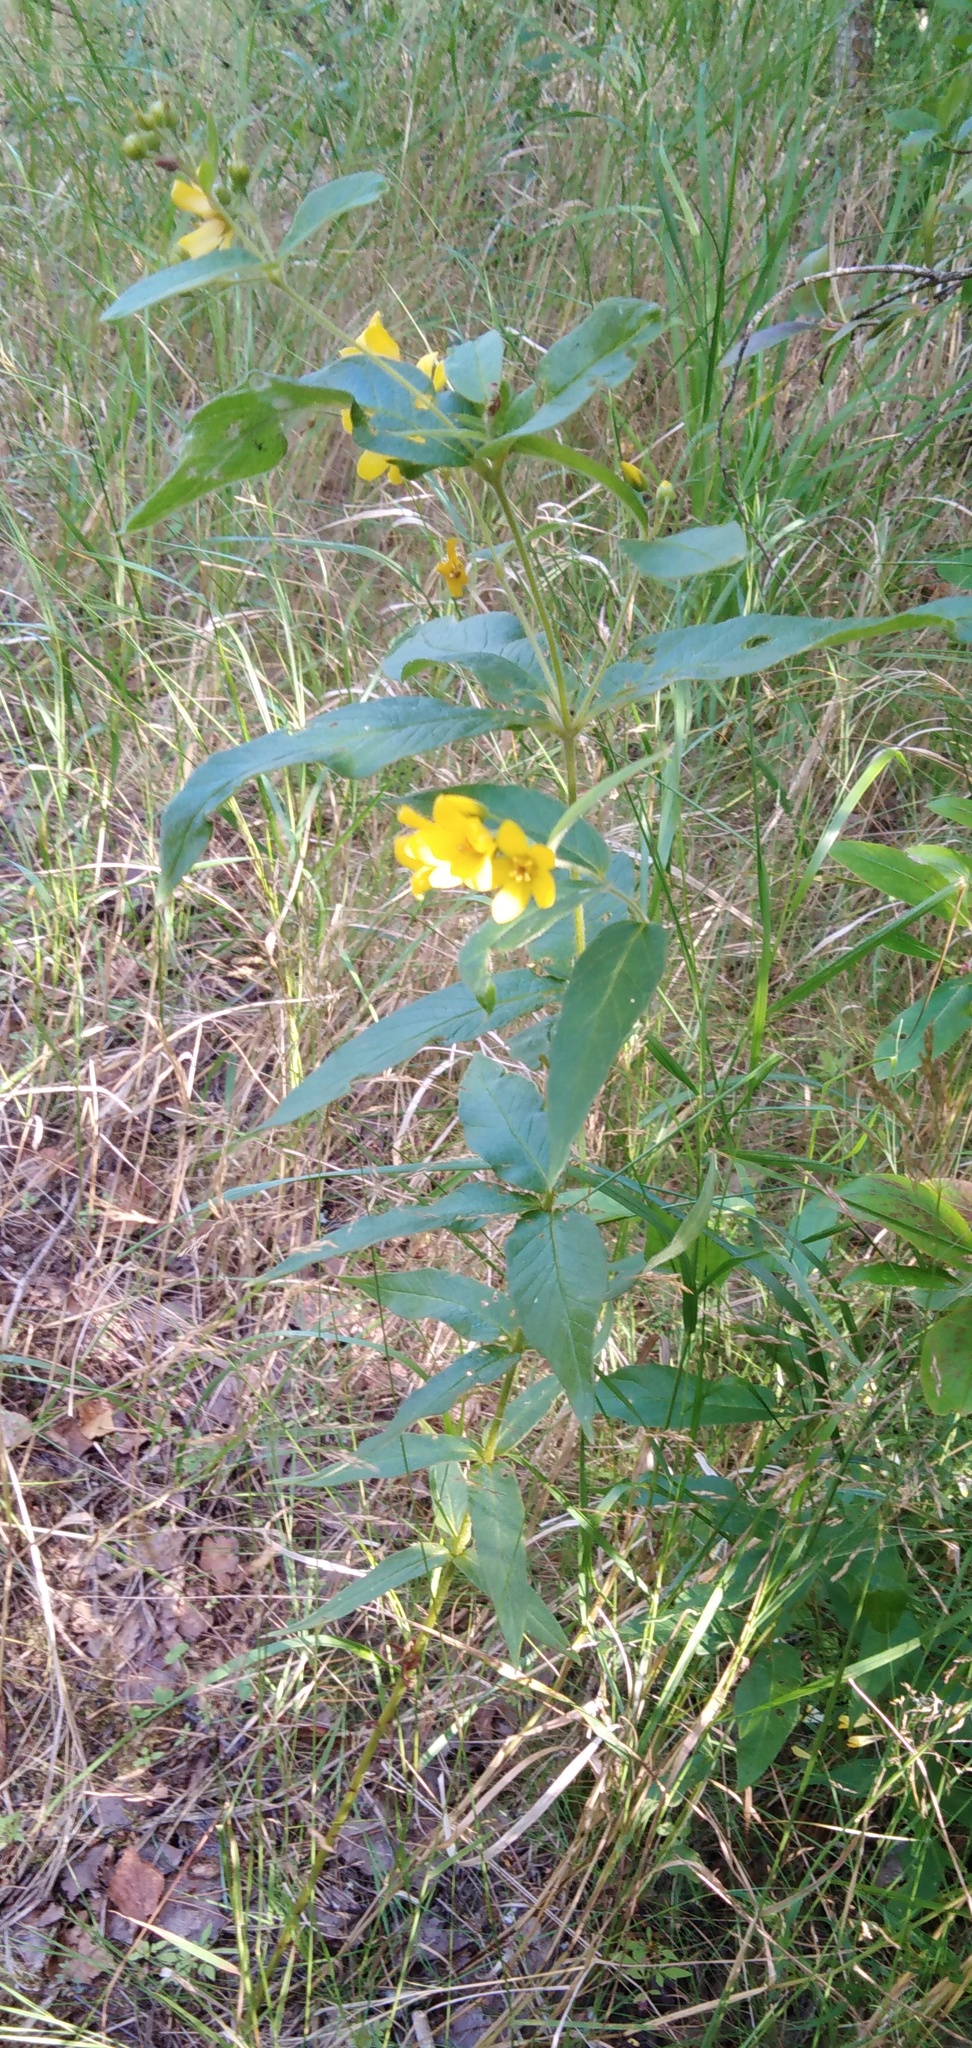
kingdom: Plantae
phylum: Tracheophyta
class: Magnoliopsida
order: Ericales
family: Primulaceae
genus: Lysimachia
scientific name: Lysimachia vulgaris
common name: Yellow loosestrife
